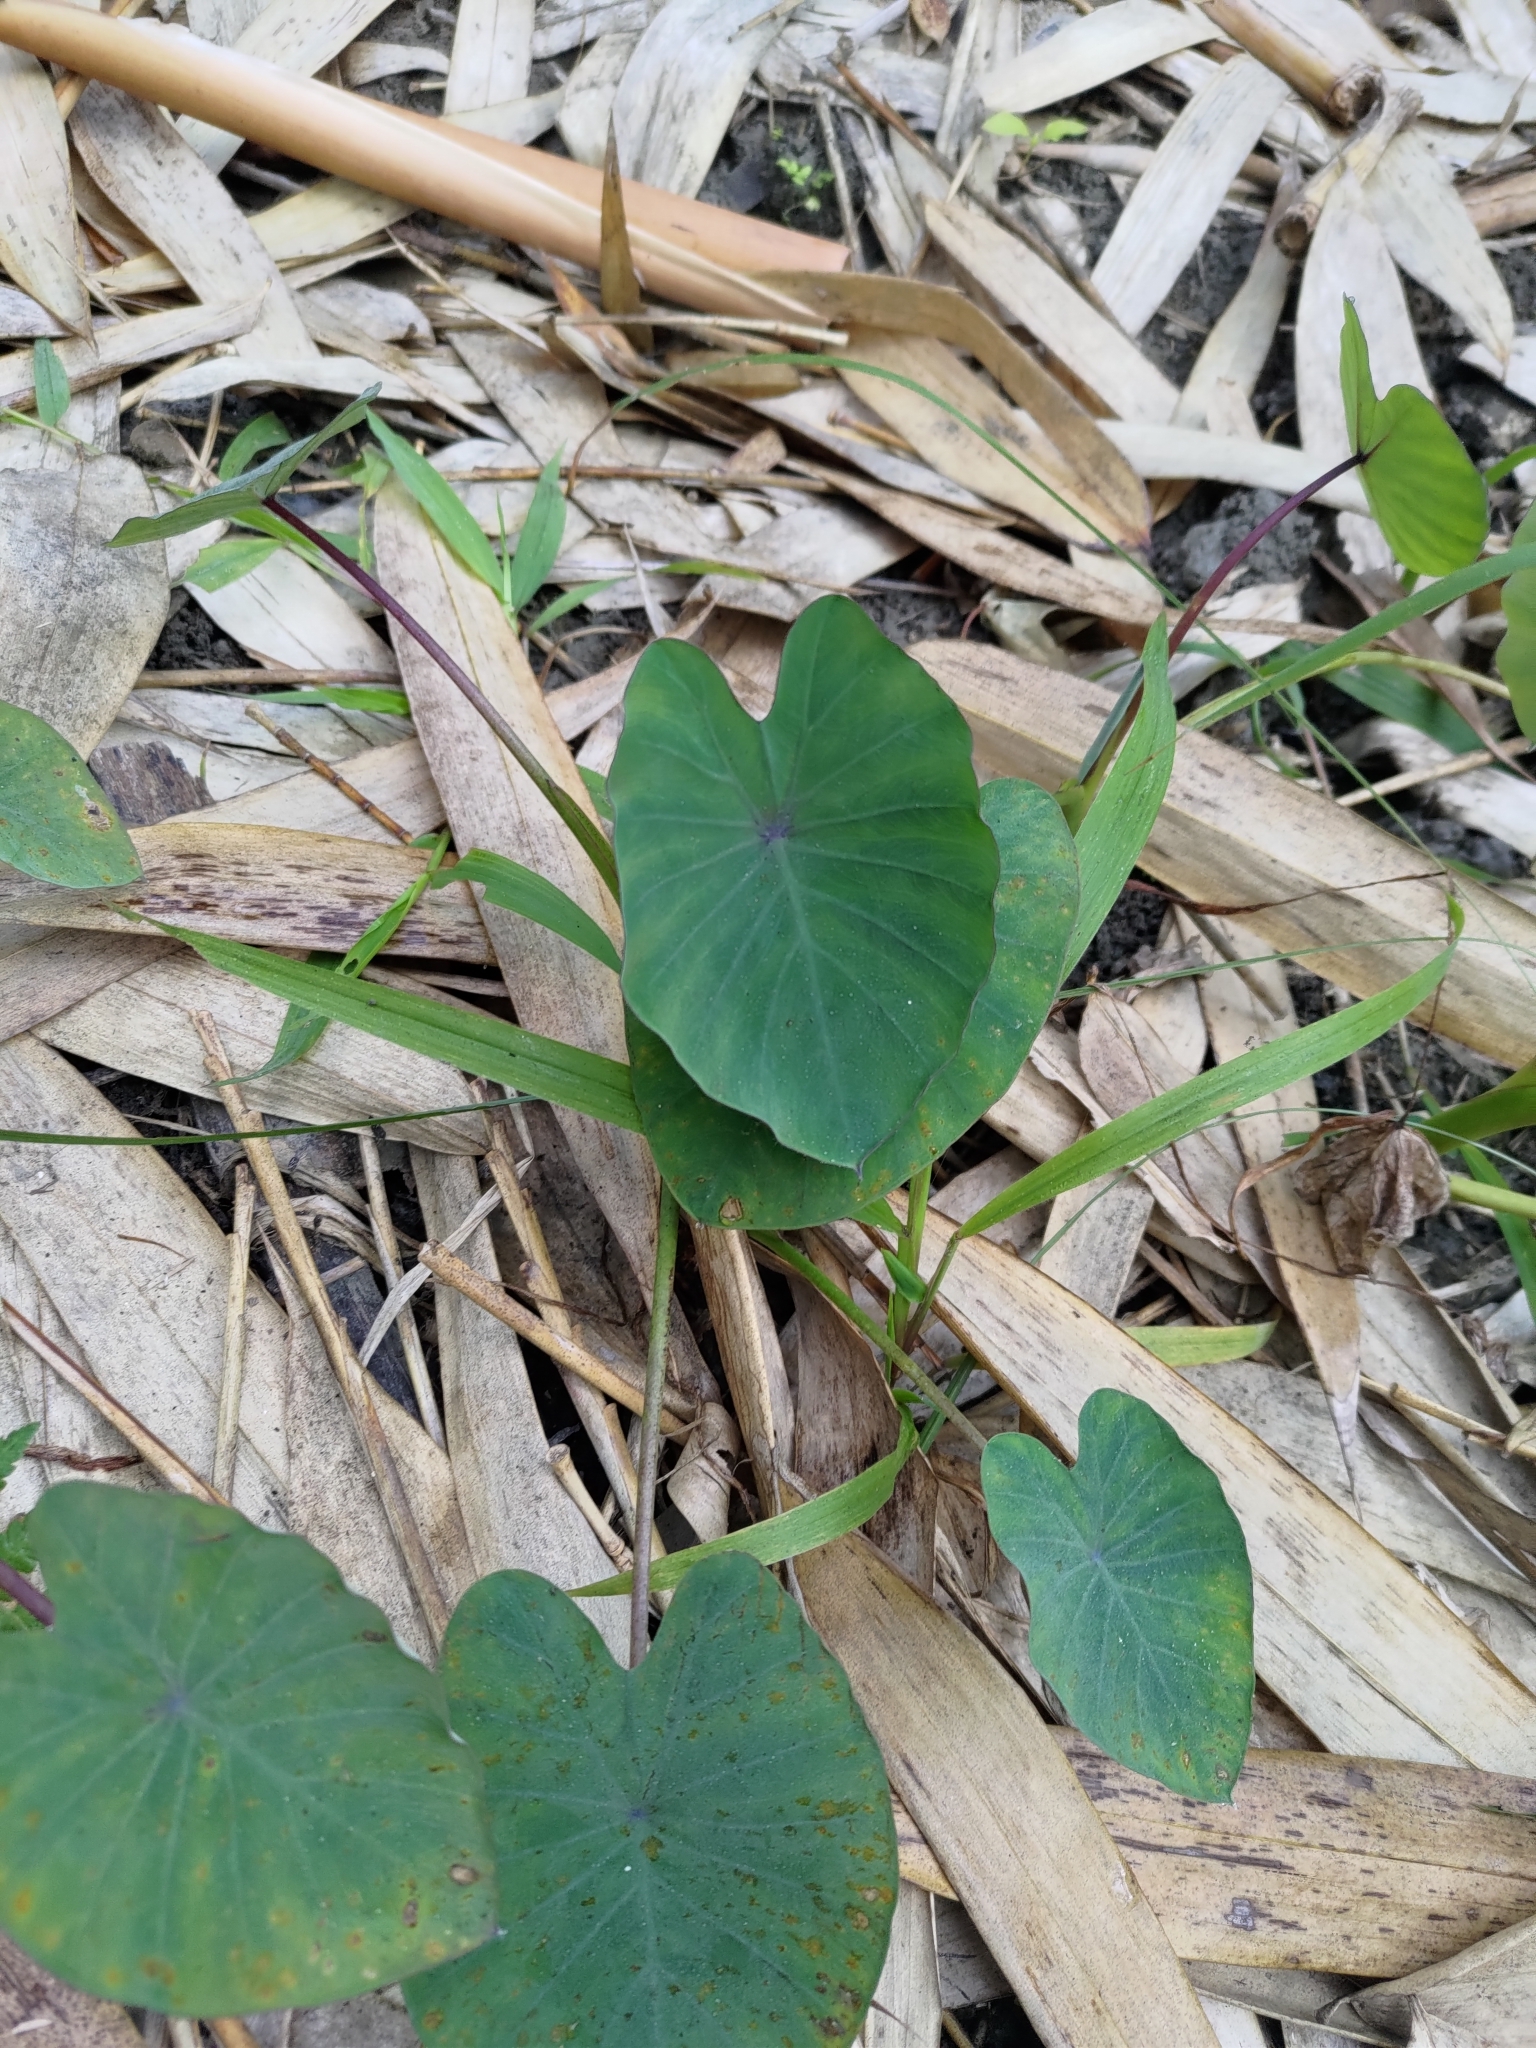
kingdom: Plantae
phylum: Tracheophyta
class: Liliopsida
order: Alismatales
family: Araceae
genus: Colocasia
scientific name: Colocasia esculenta
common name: Taro
